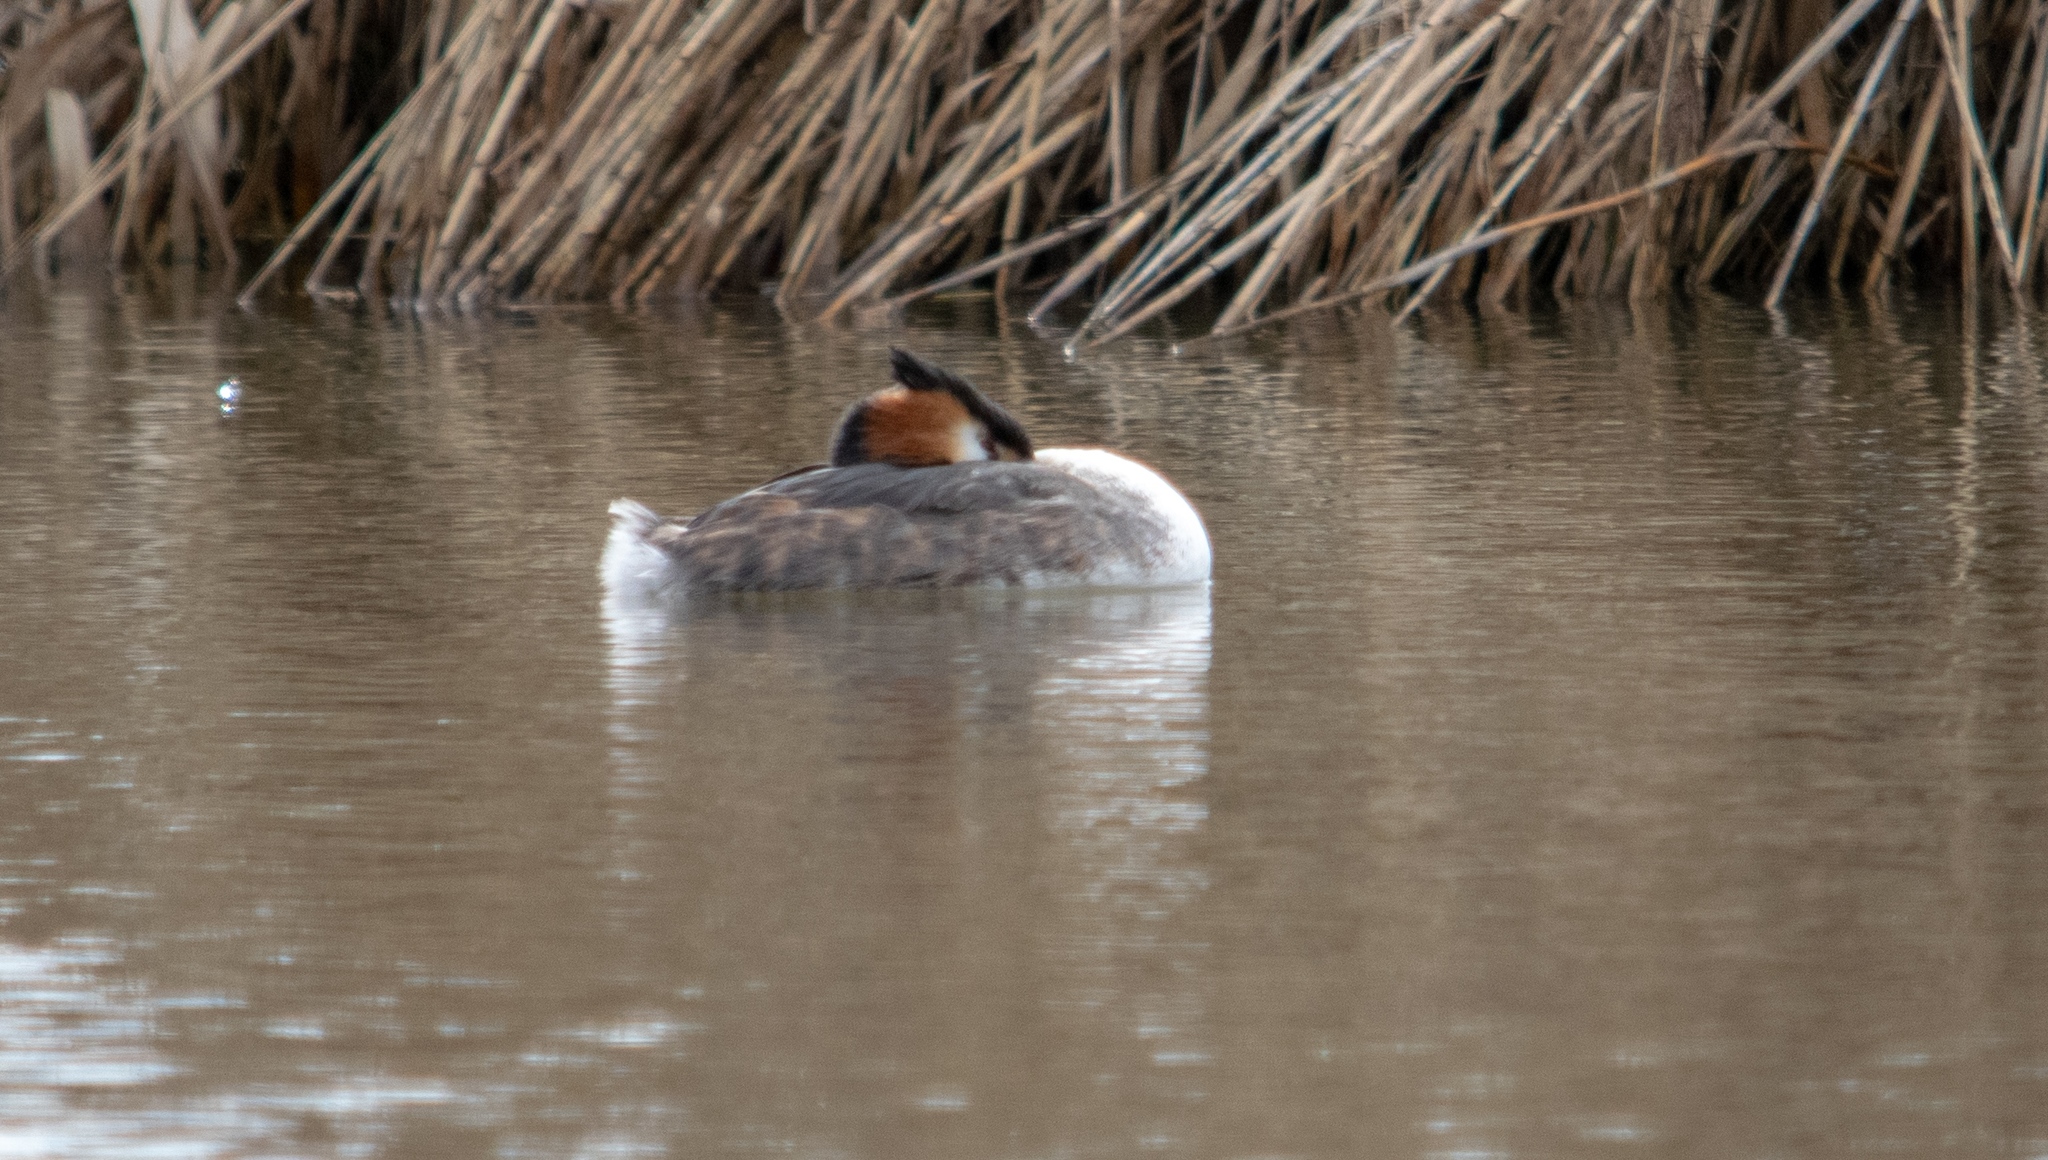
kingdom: Animalia
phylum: Chordata
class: Aves
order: Podicipediformes
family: Podicipedidae
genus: Podiceps
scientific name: Podiceps cristatus
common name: Great crested grebe
